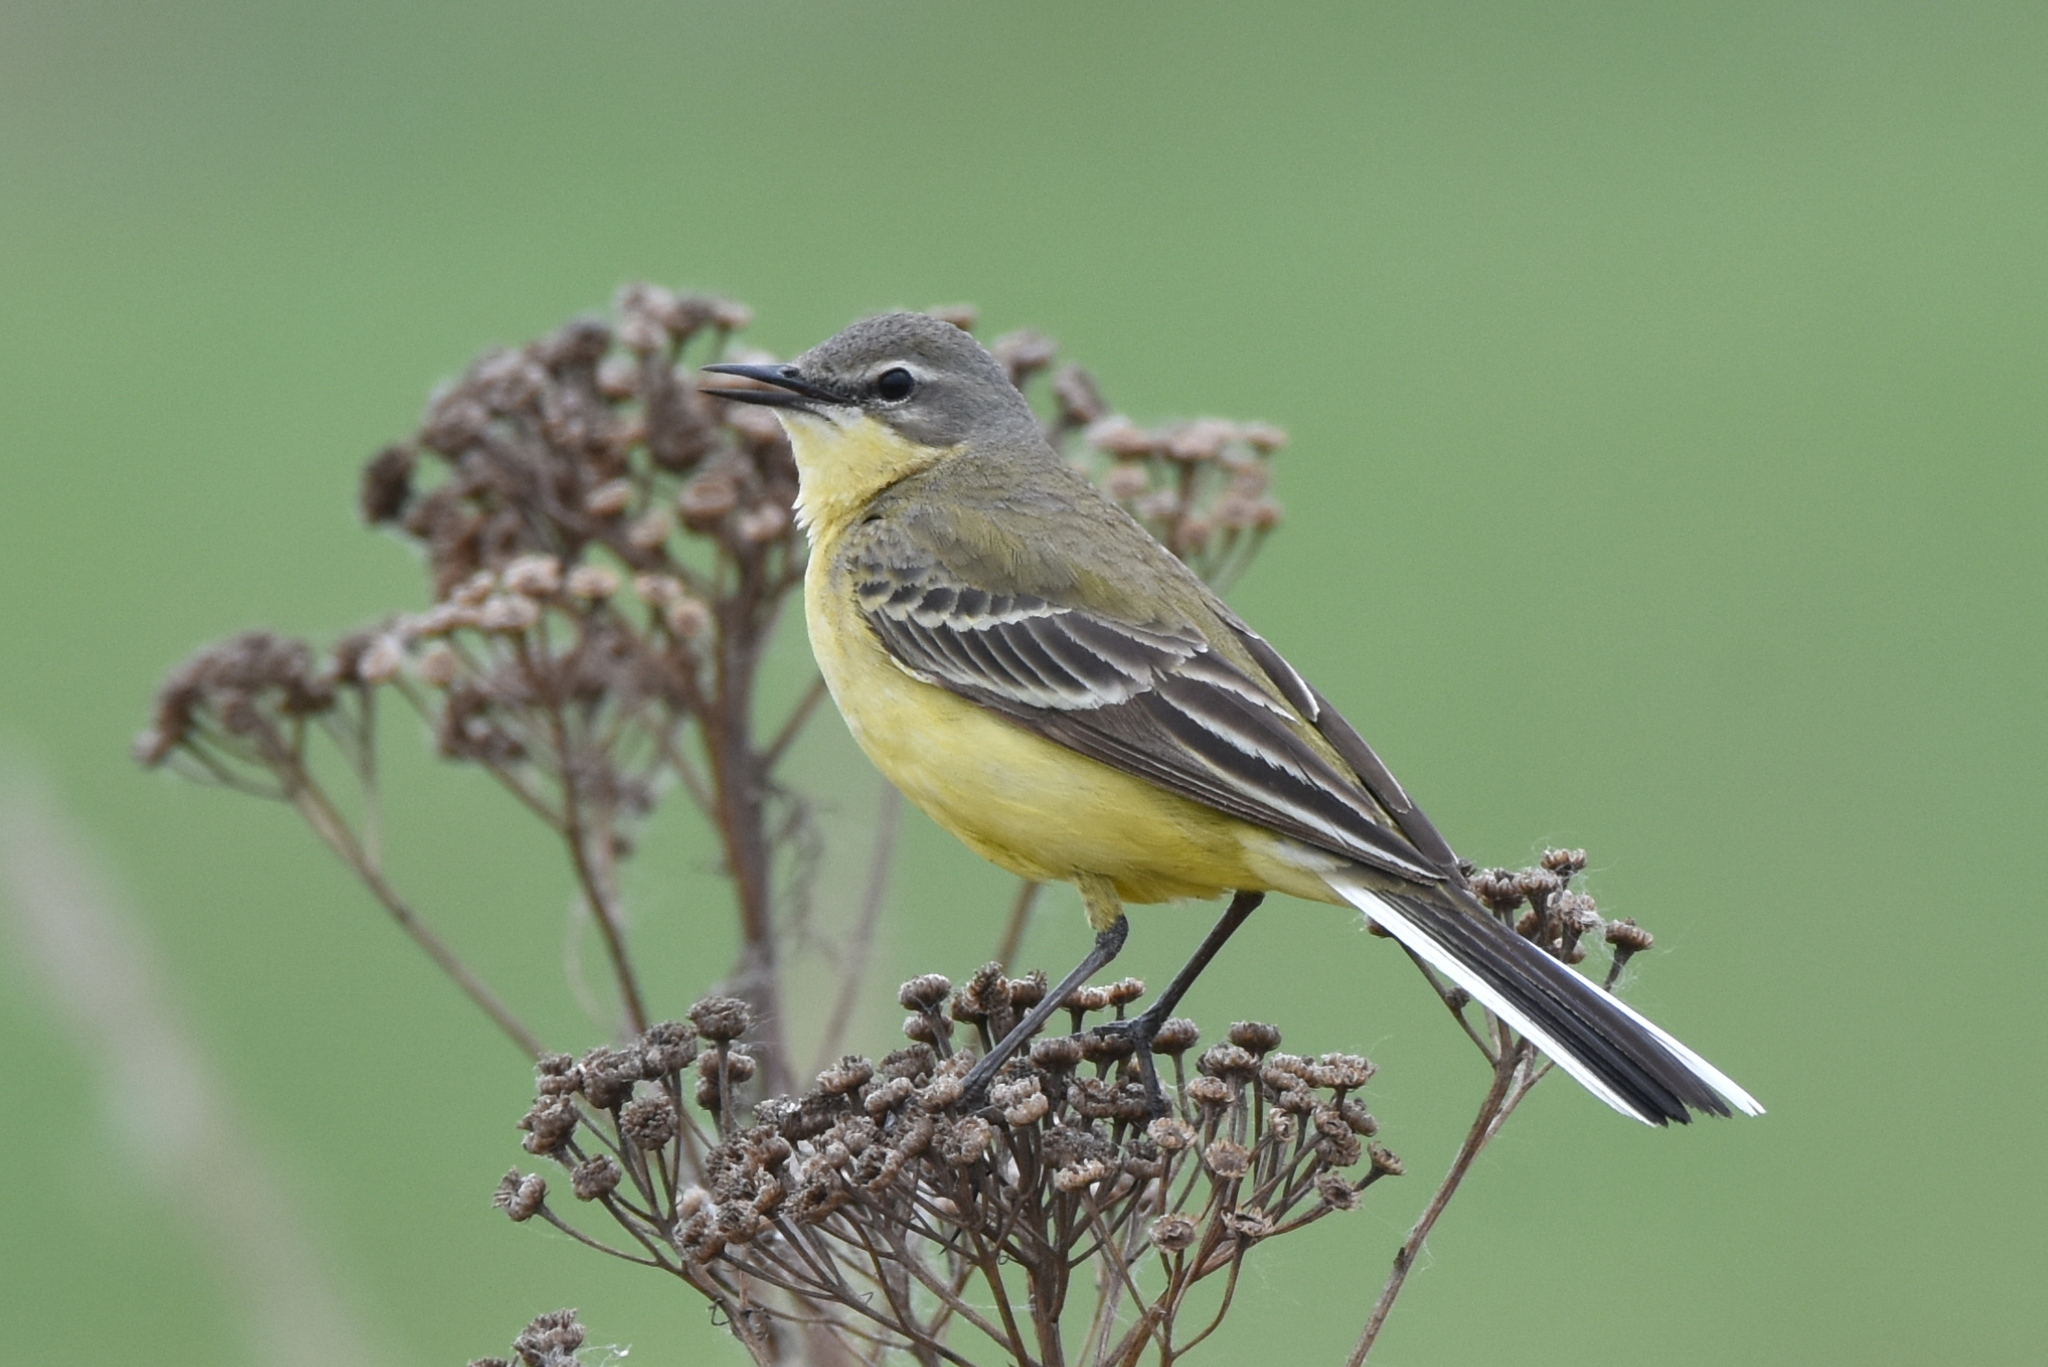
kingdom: Animalia
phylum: Chordata
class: Aves
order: Passeriformes
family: Motacillidae
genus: Motacilla
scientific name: Motacilla flava
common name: Western yellow wagtail
